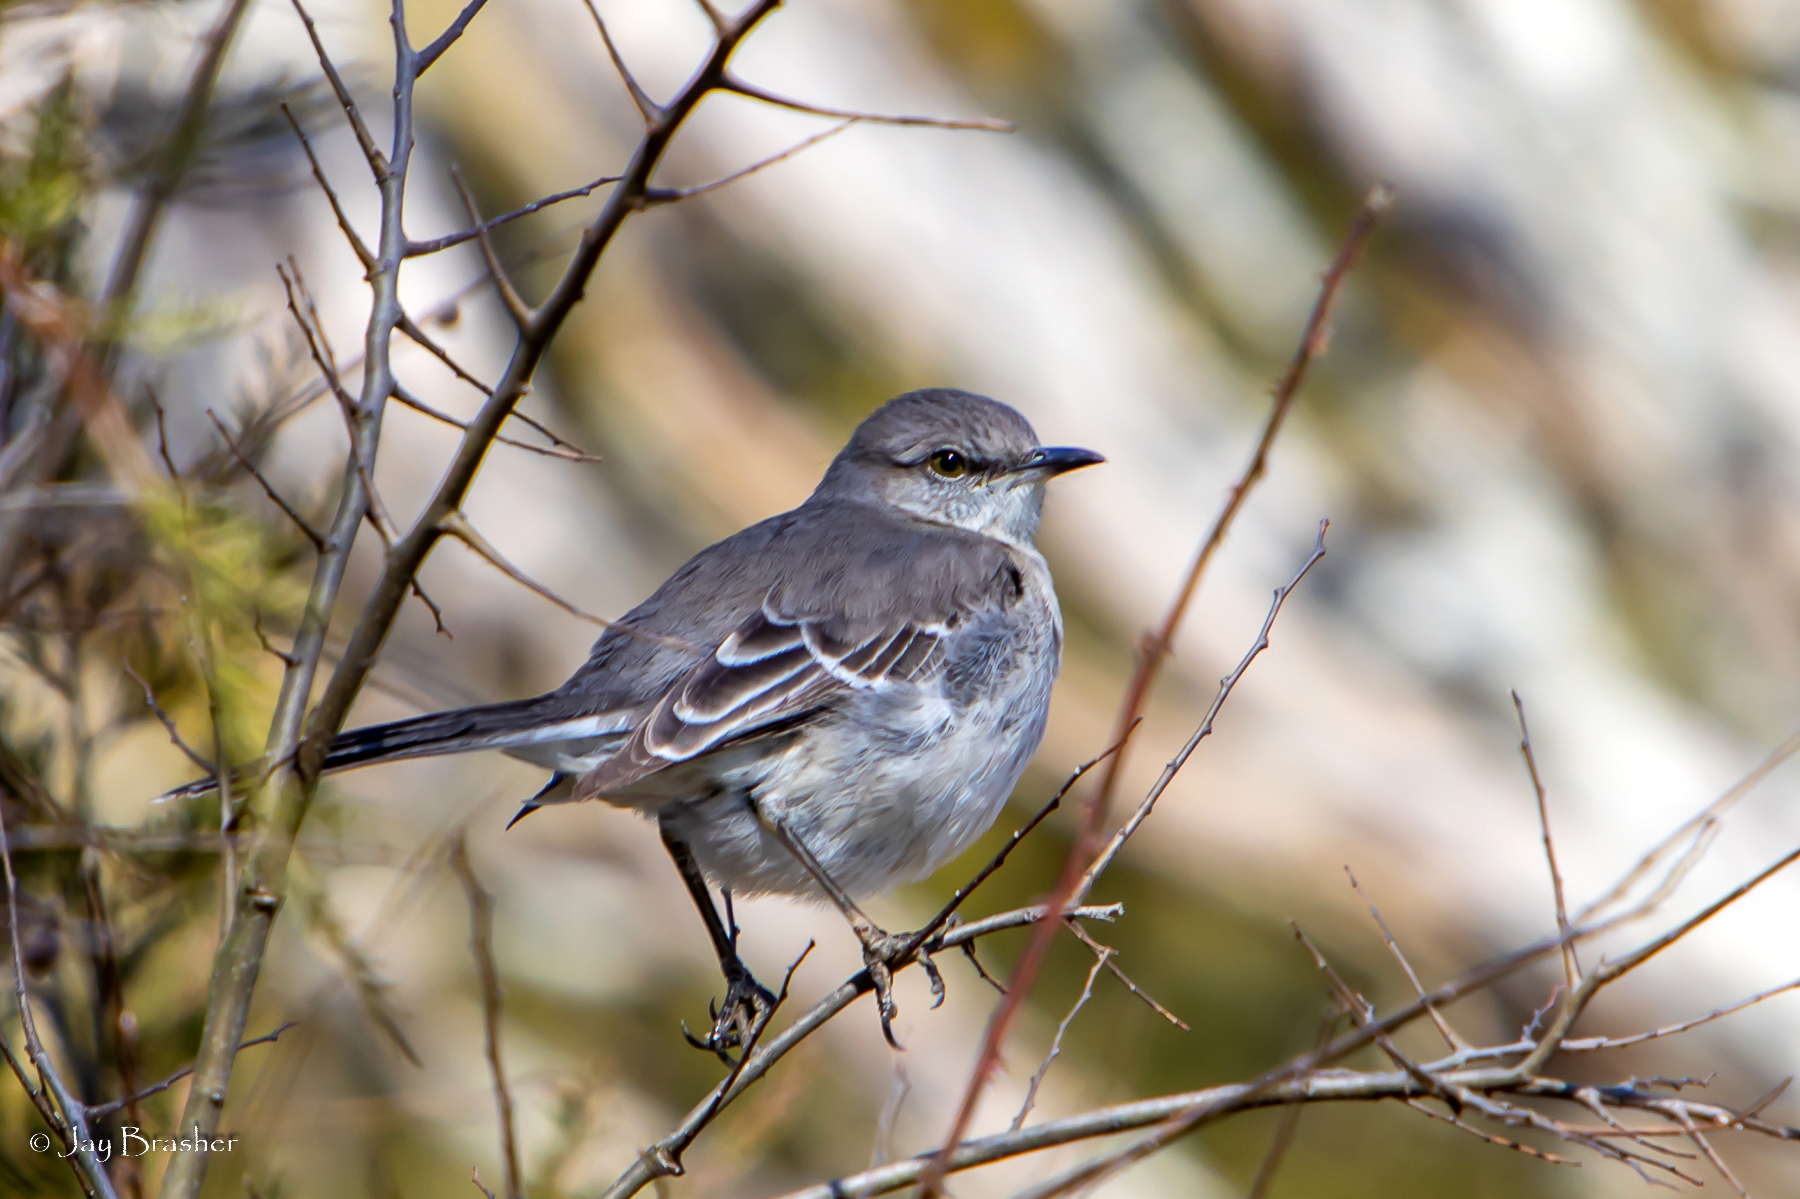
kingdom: Animalia
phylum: Chordata
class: Aves
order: Passeriformes
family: Mimidae
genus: Mimus
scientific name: Mimus polyglottos
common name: Northern mockingbird
